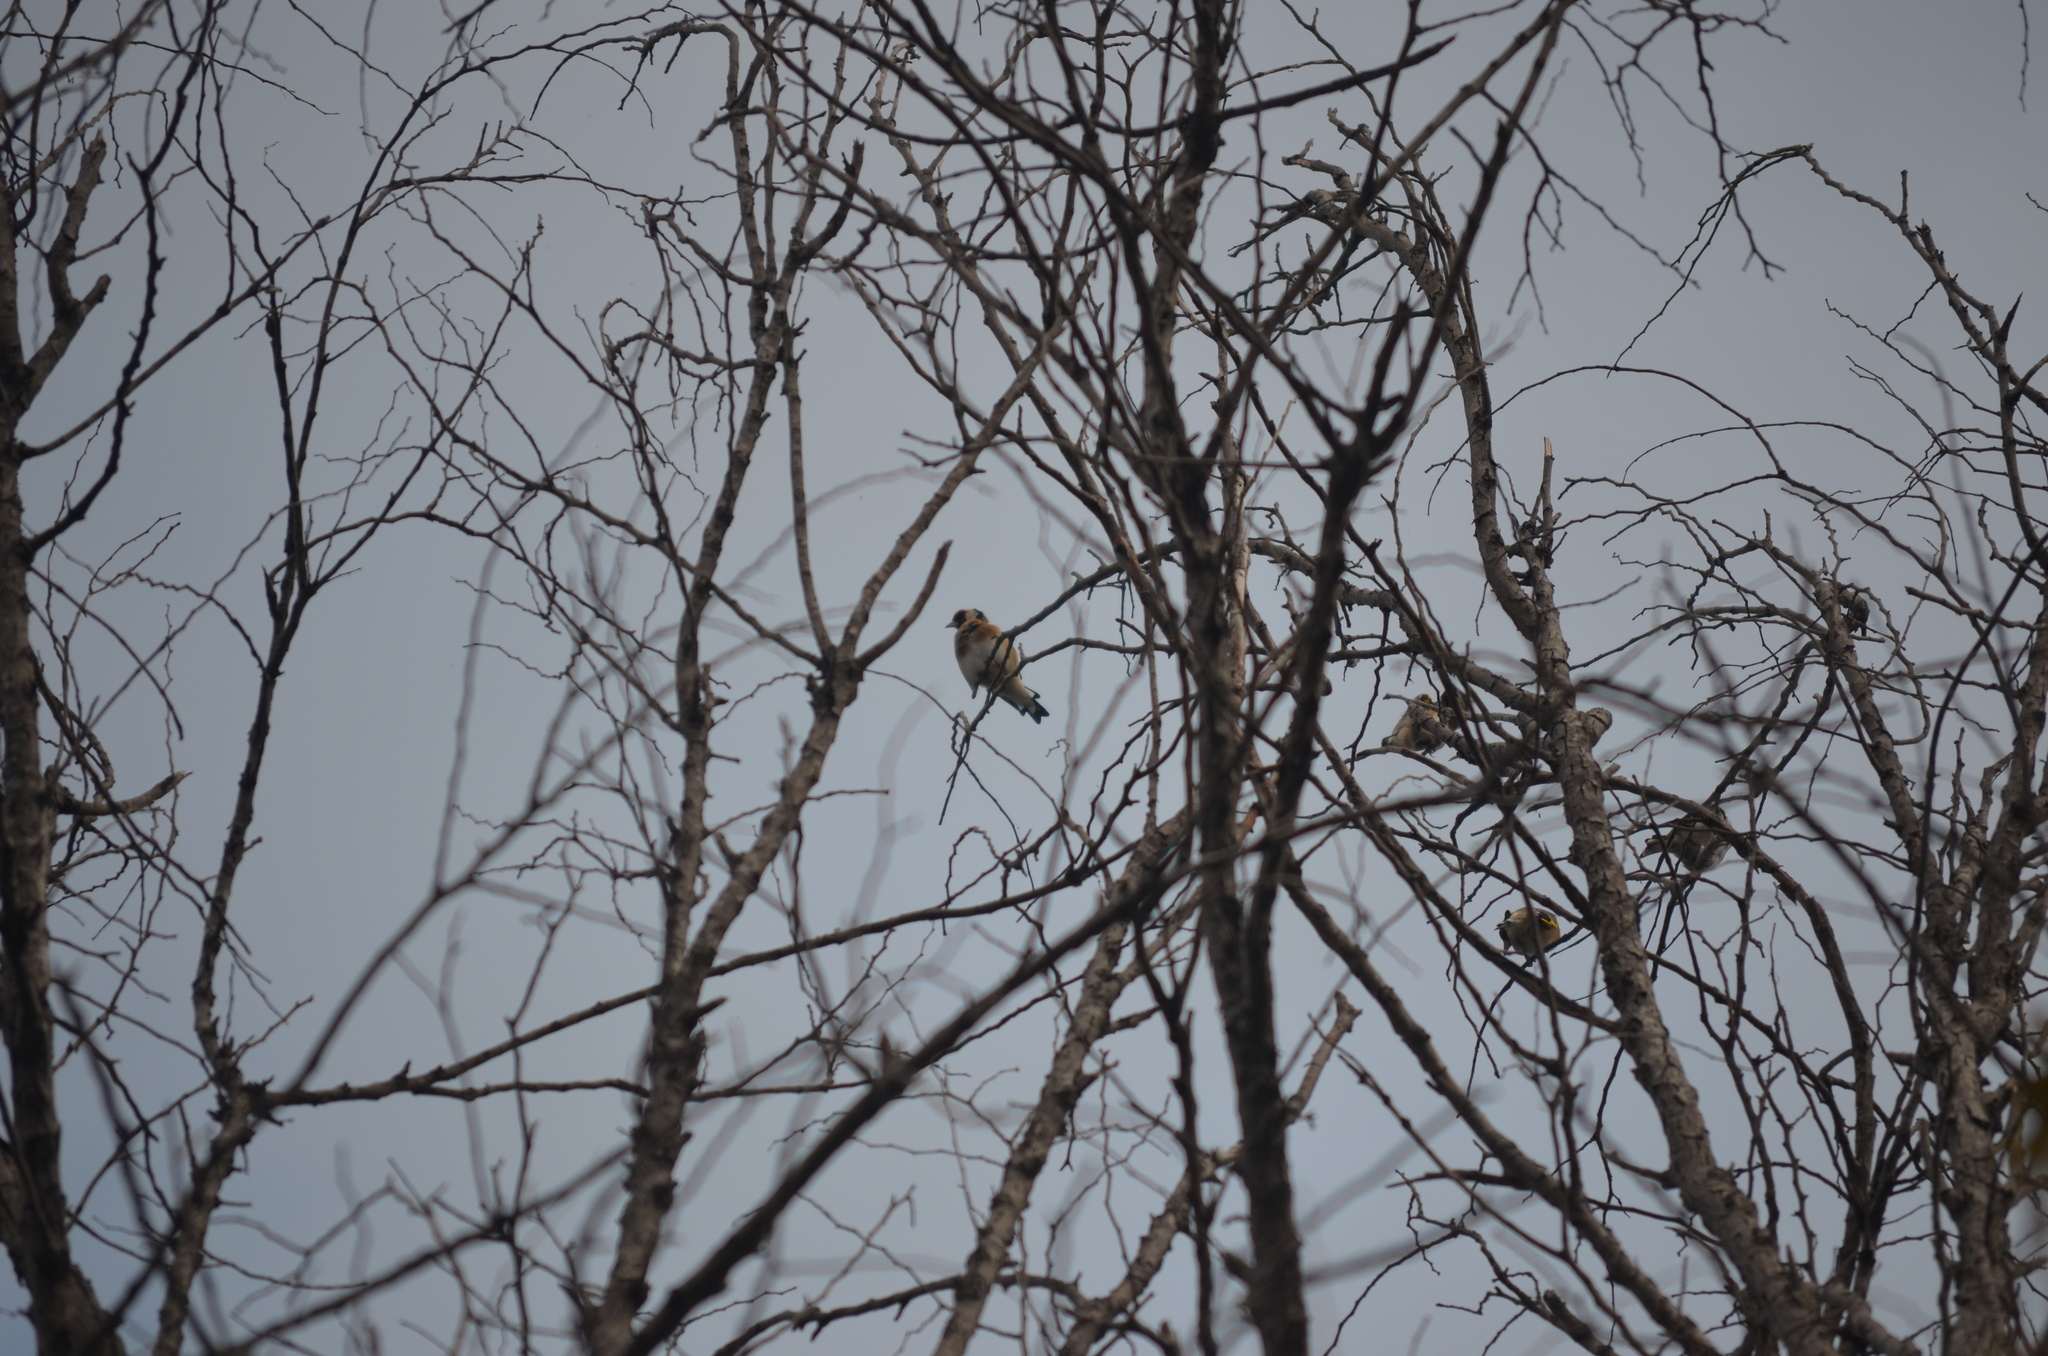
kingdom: Animalia
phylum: Chordata
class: Aves
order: Passeriformes
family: Fringillidae
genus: Carduelis
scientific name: Carduelis carduelis
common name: European goldfinch
